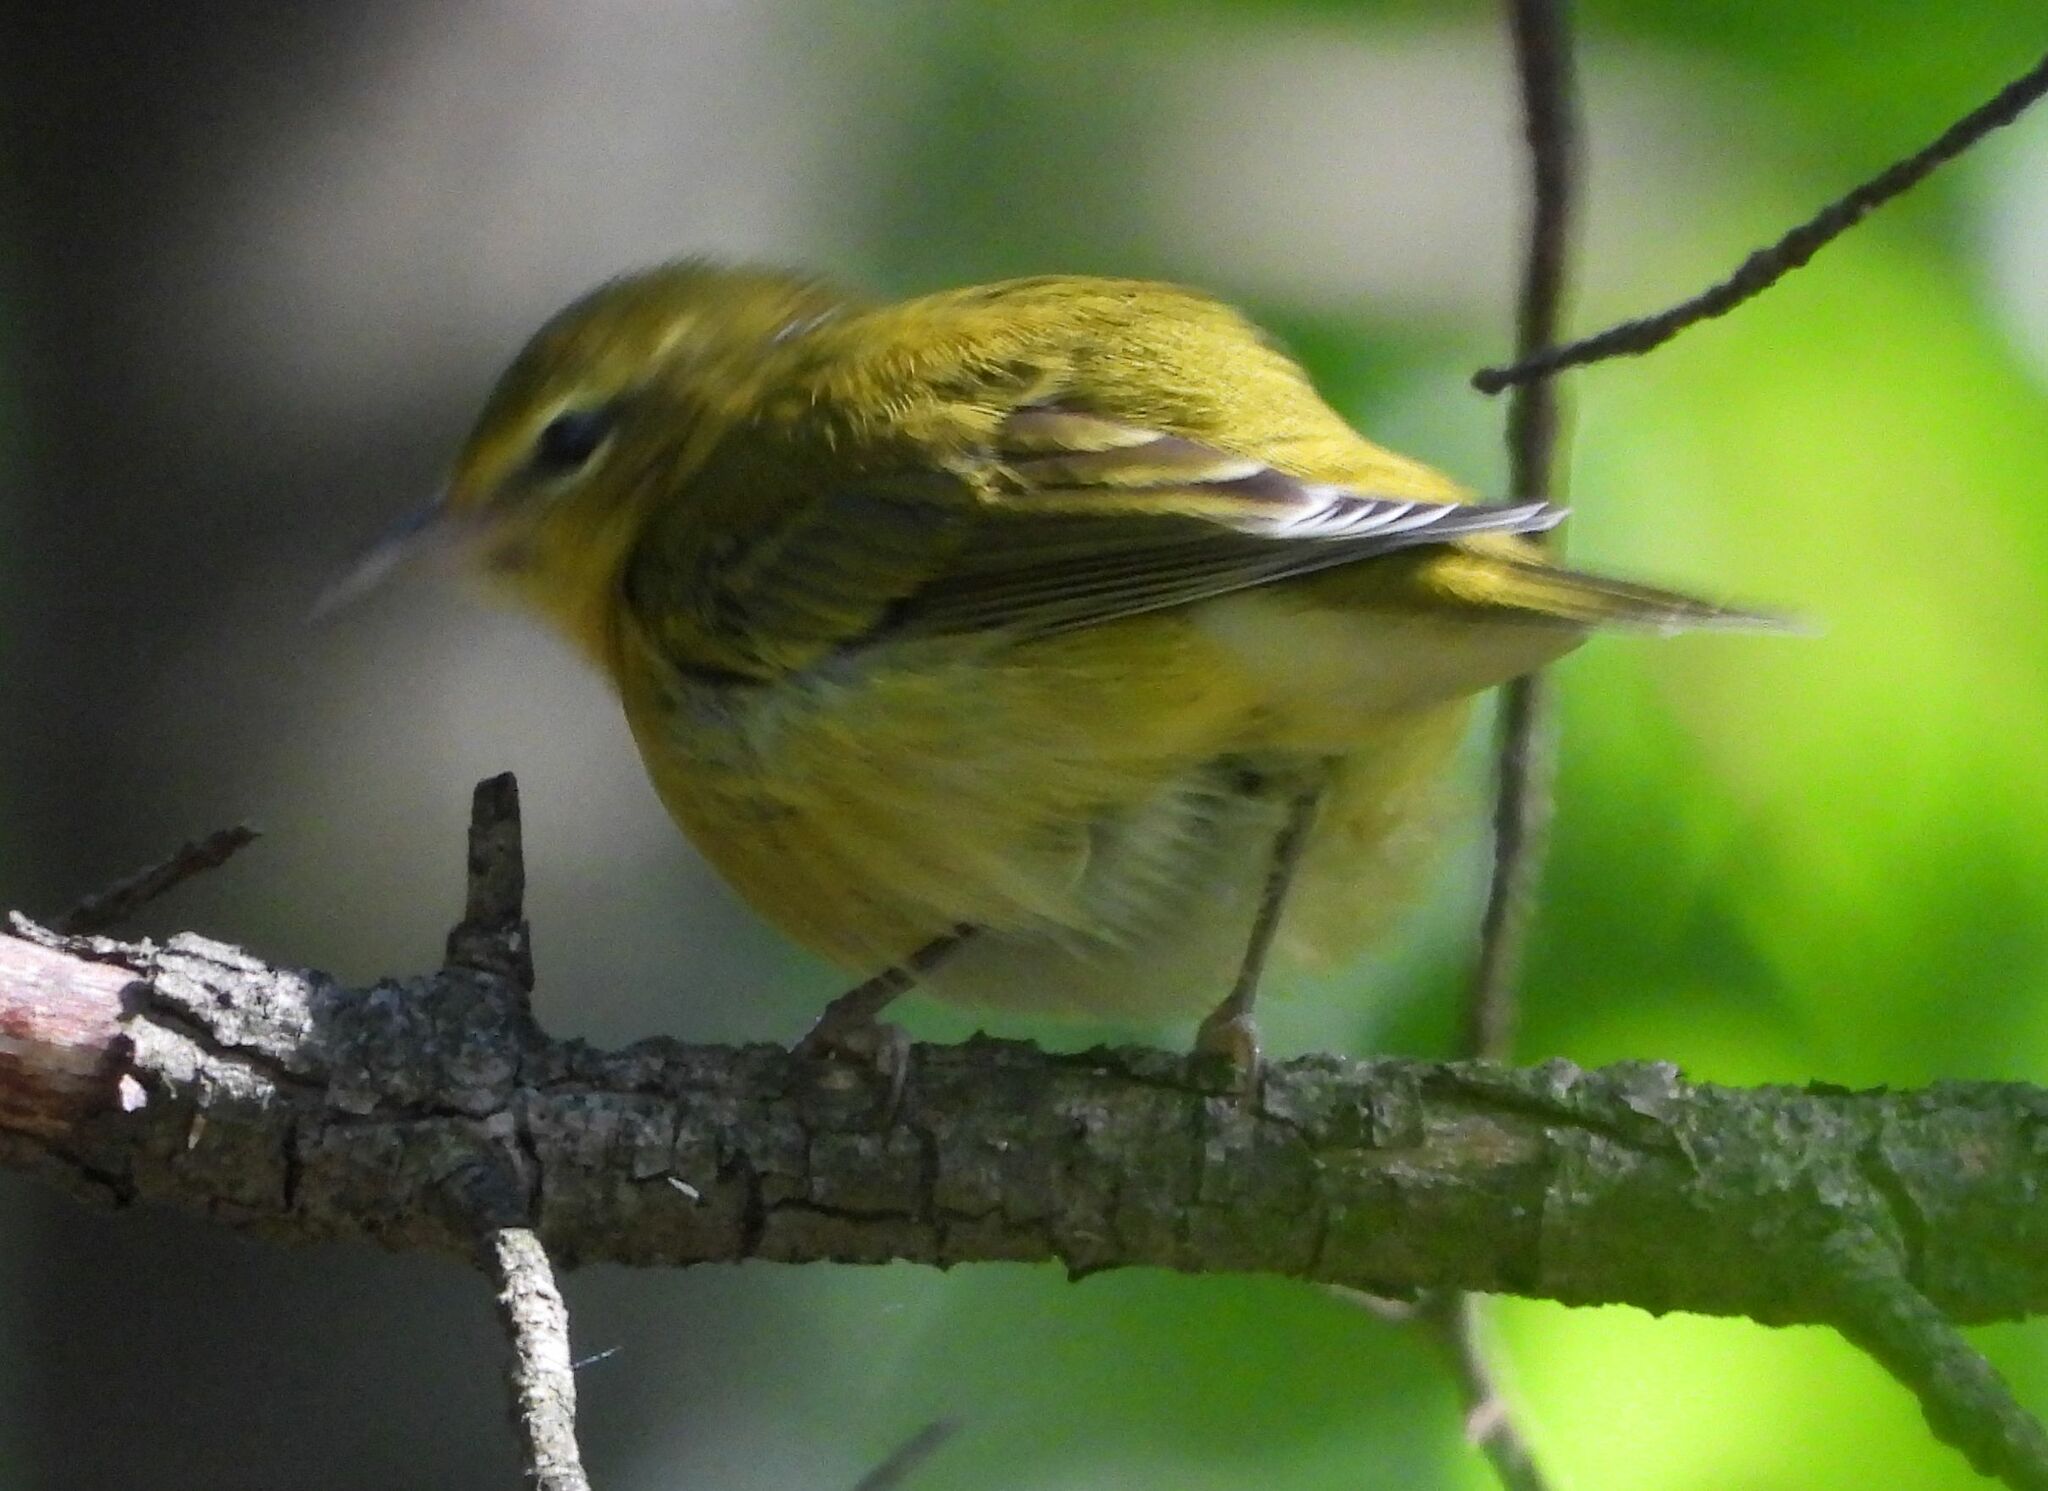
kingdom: Animalia
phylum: Chordata
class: Aves
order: Passeriformes
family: Parulidae
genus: Leiothlypis
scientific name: Leiothlypis peregrina
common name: Tennessee warbler
